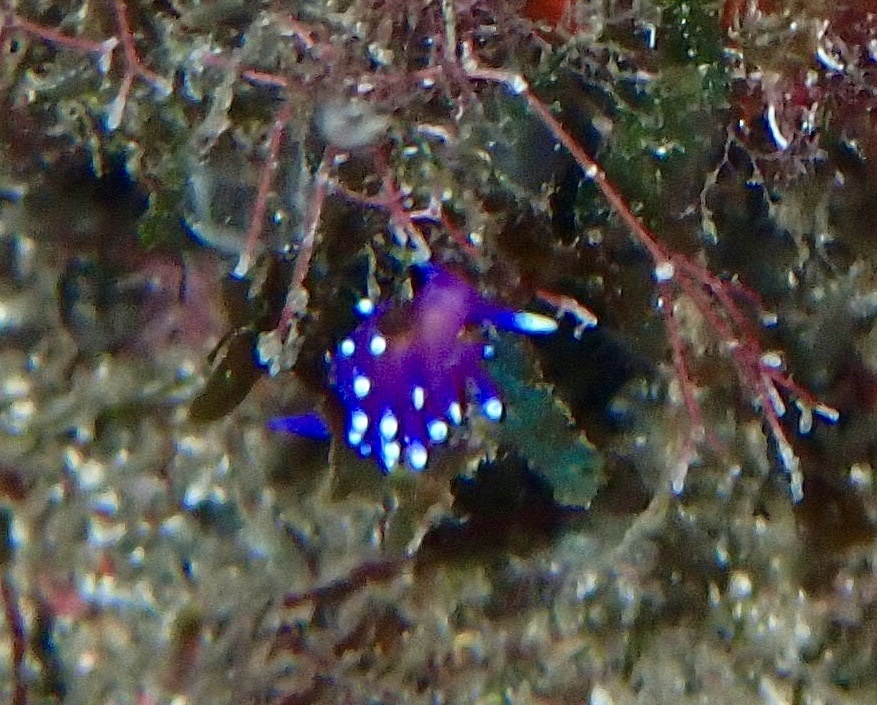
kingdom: Animalia
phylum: Mollusca
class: Gastropoda
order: Nudibranchia
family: Flabellinidae
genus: Coryphellina
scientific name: Coryphellina arveloi
